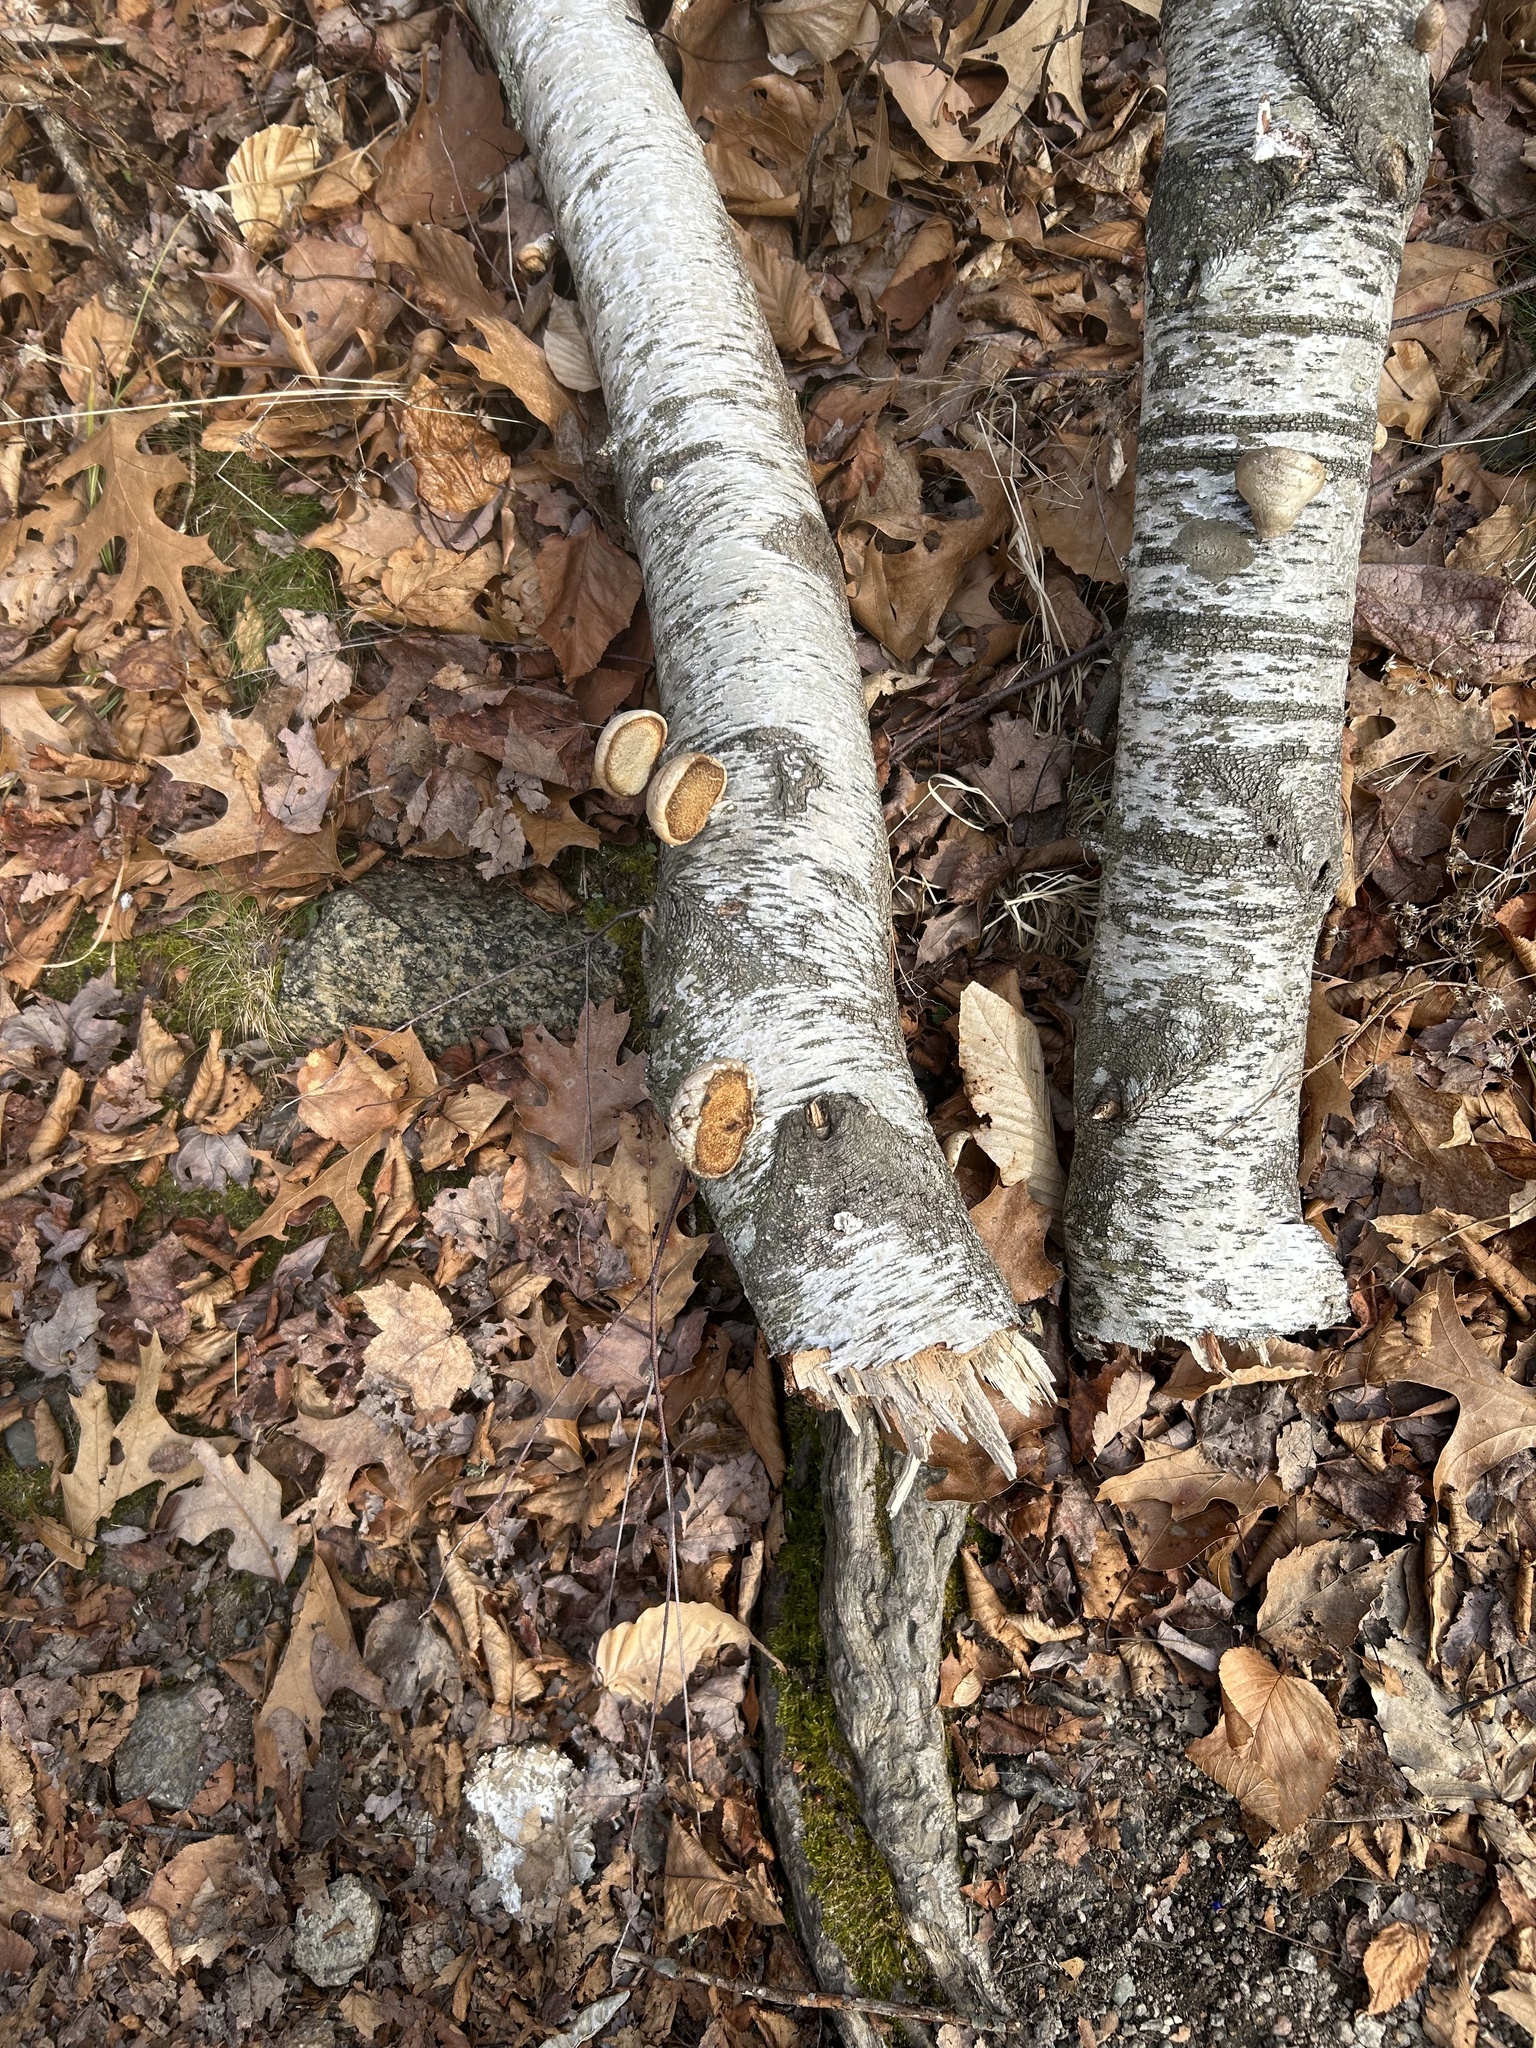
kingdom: Plantae
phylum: Tracheophyta
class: Magnoliopsida
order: Fagales
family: Betulaceae
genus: Betula
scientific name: Betula populifolia
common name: Fire birch
